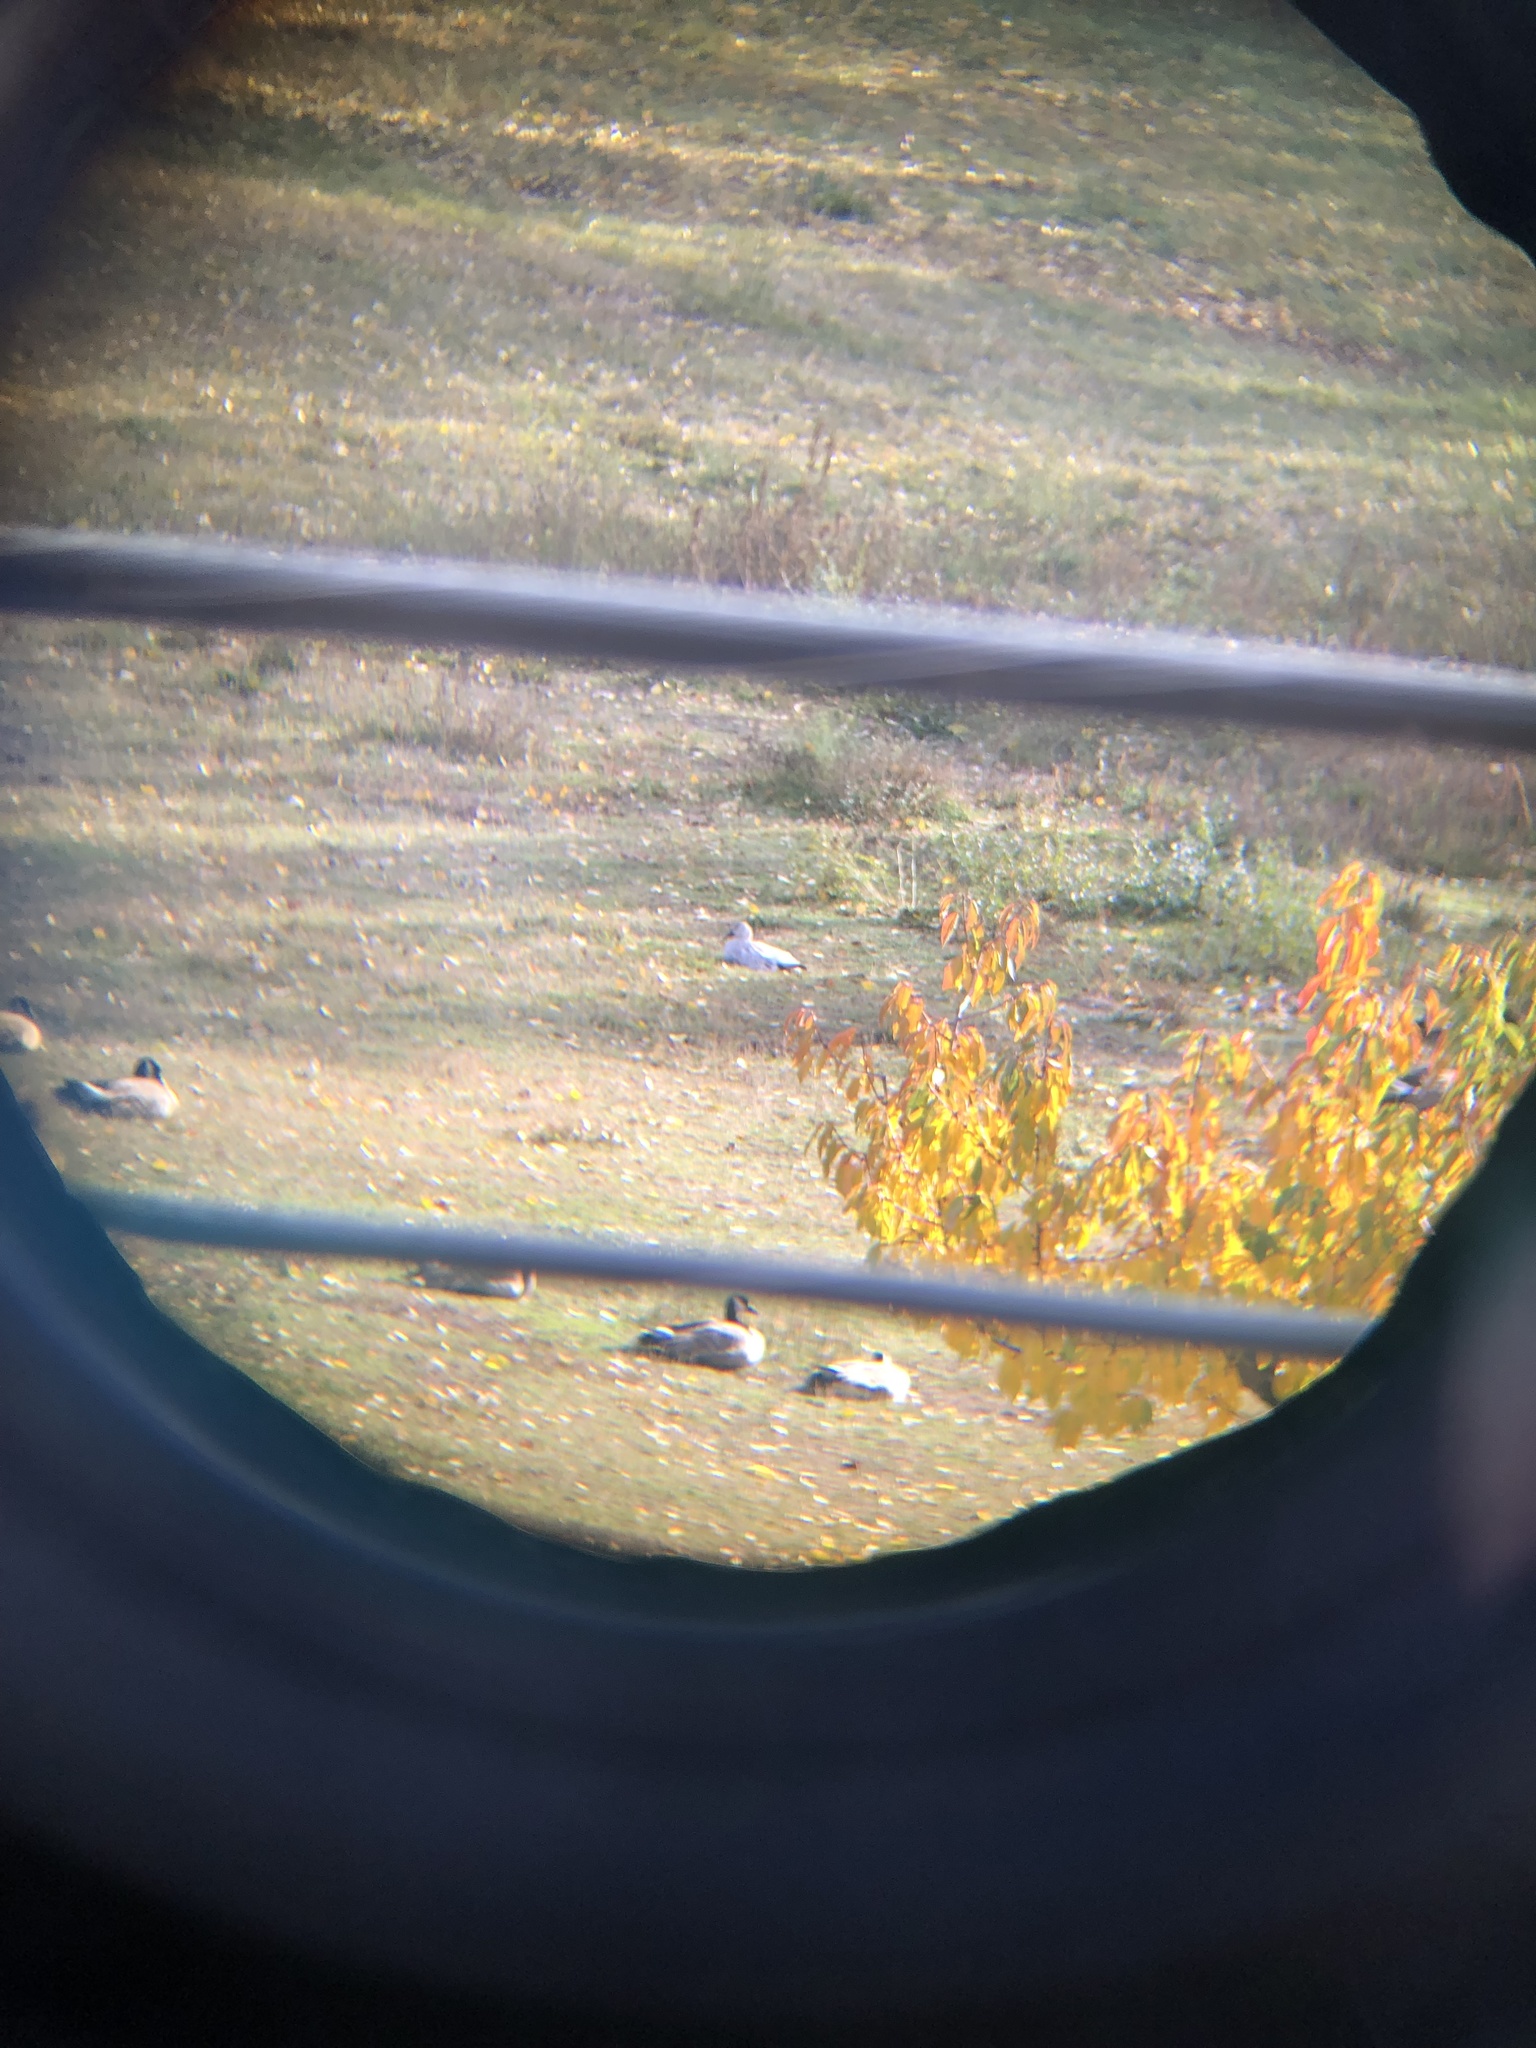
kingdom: Animalia
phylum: Chordata
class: Aves
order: Anseriformes
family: Anatidae
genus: Anser
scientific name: Anser caerulescens
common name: Snow goose
